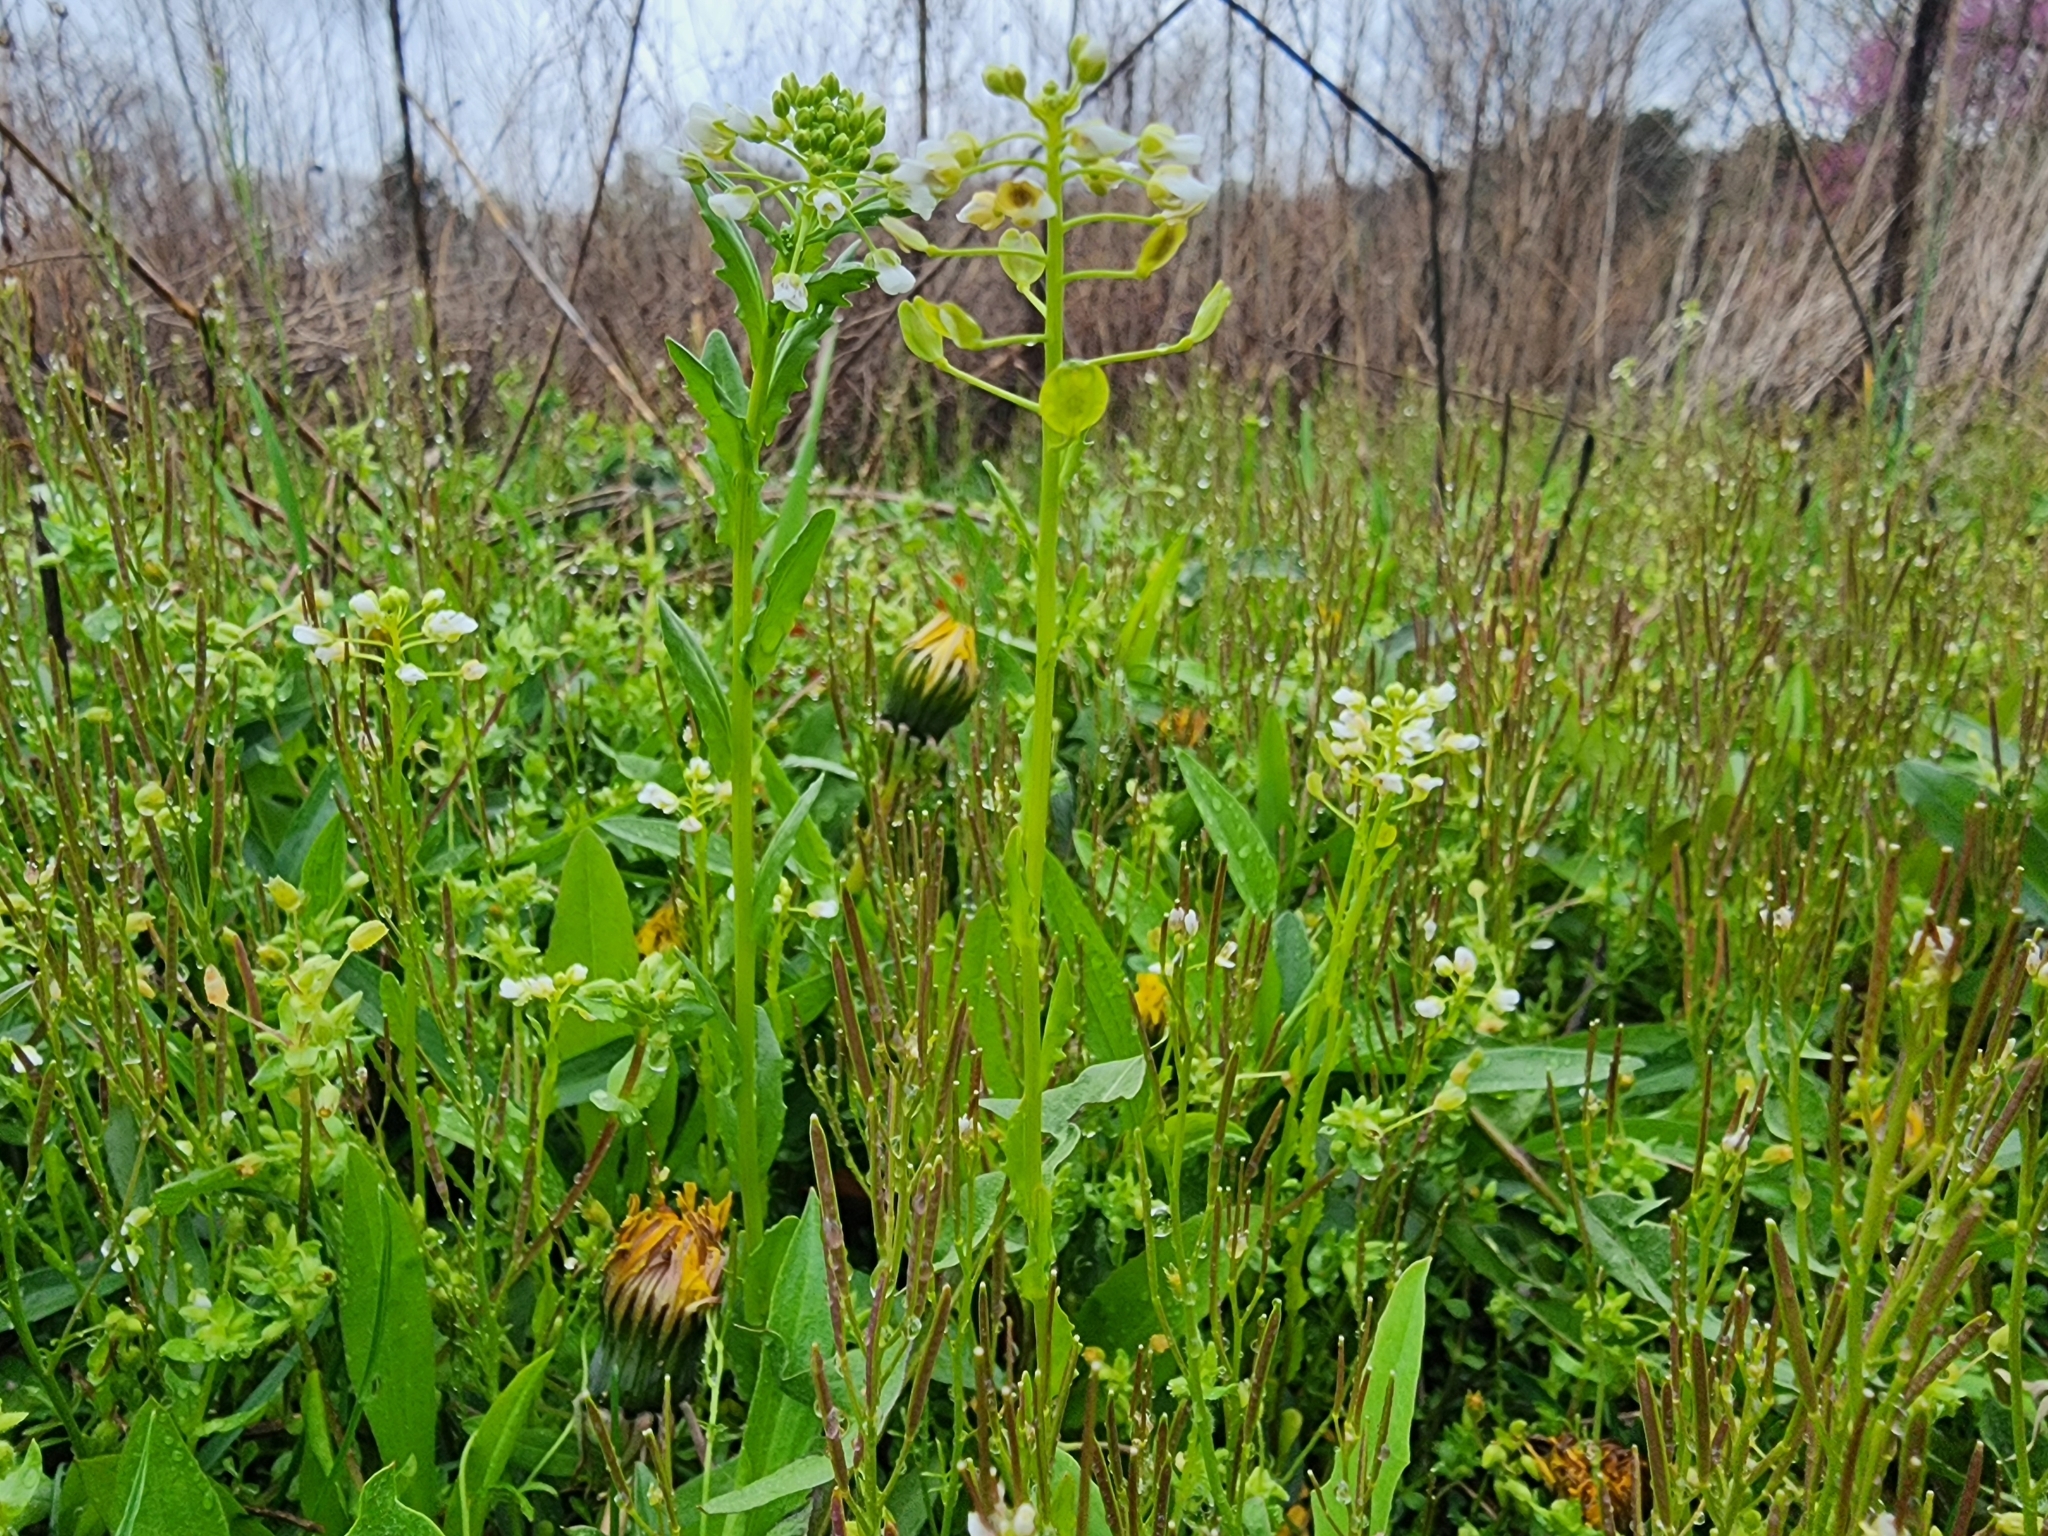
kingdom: Plantae
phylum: Tracheophyta
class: Magnoliopsida
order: Brassicales
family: Brassicaceae
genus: Thlaspi
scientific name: Thlaspi arvense
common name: Field pennycress
